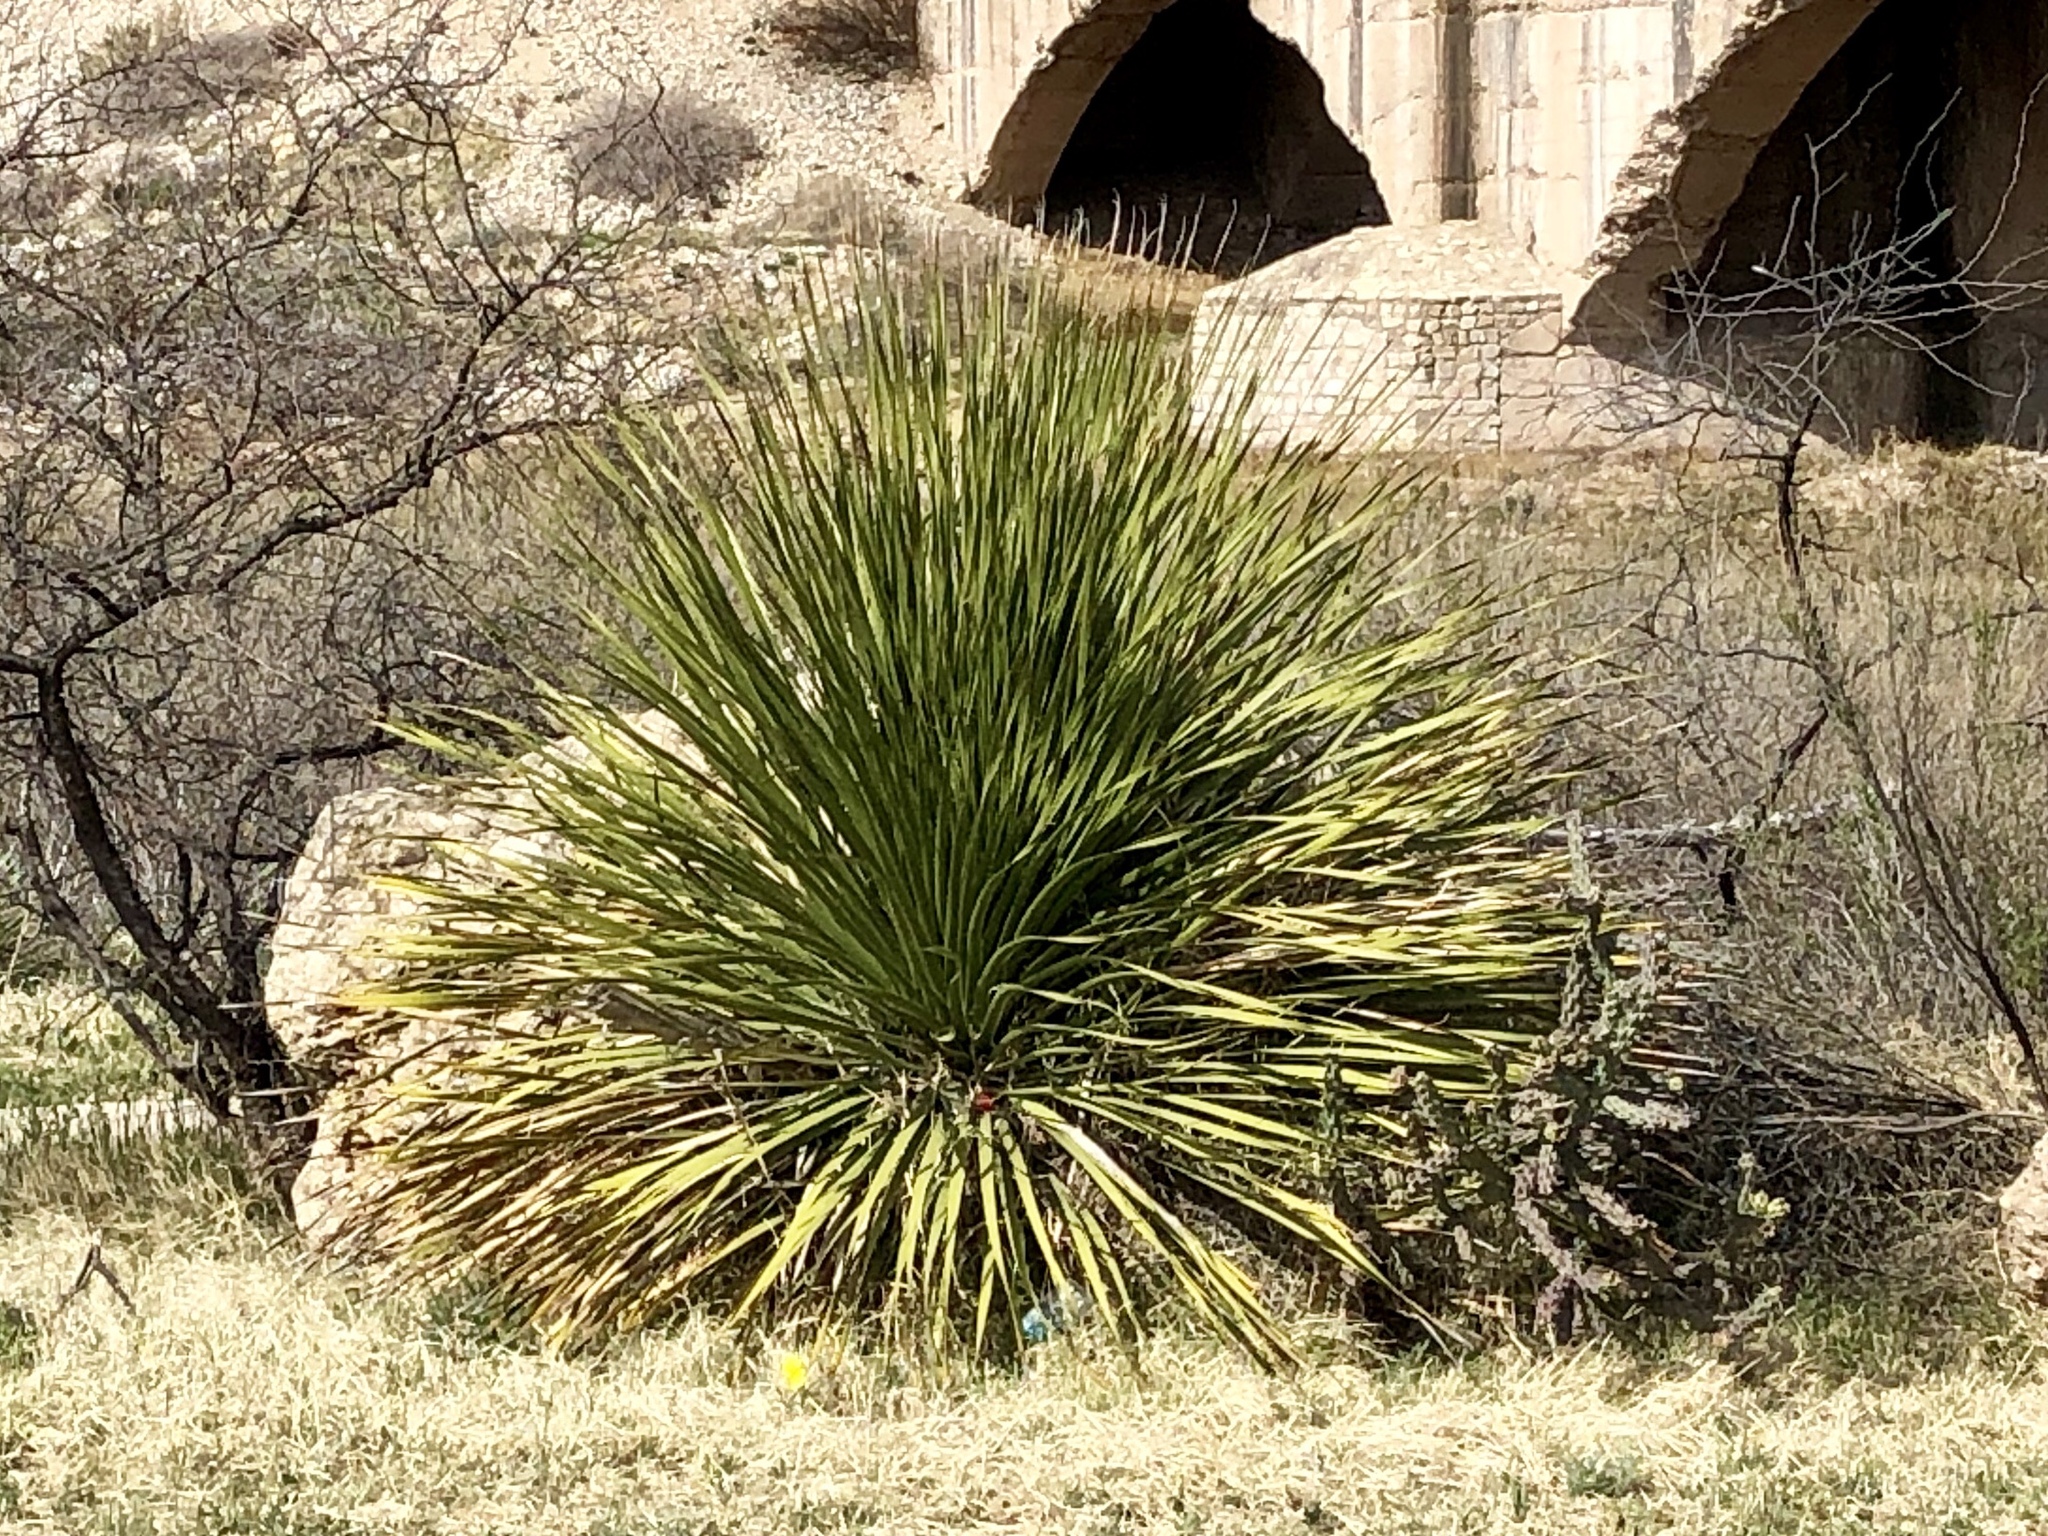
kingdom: Plantae
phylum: Tracheophyta
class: Liliopsida
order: Asparagales
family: Asparagaceae
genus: Dasylirion
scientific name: Dasylirion leiophyllum
